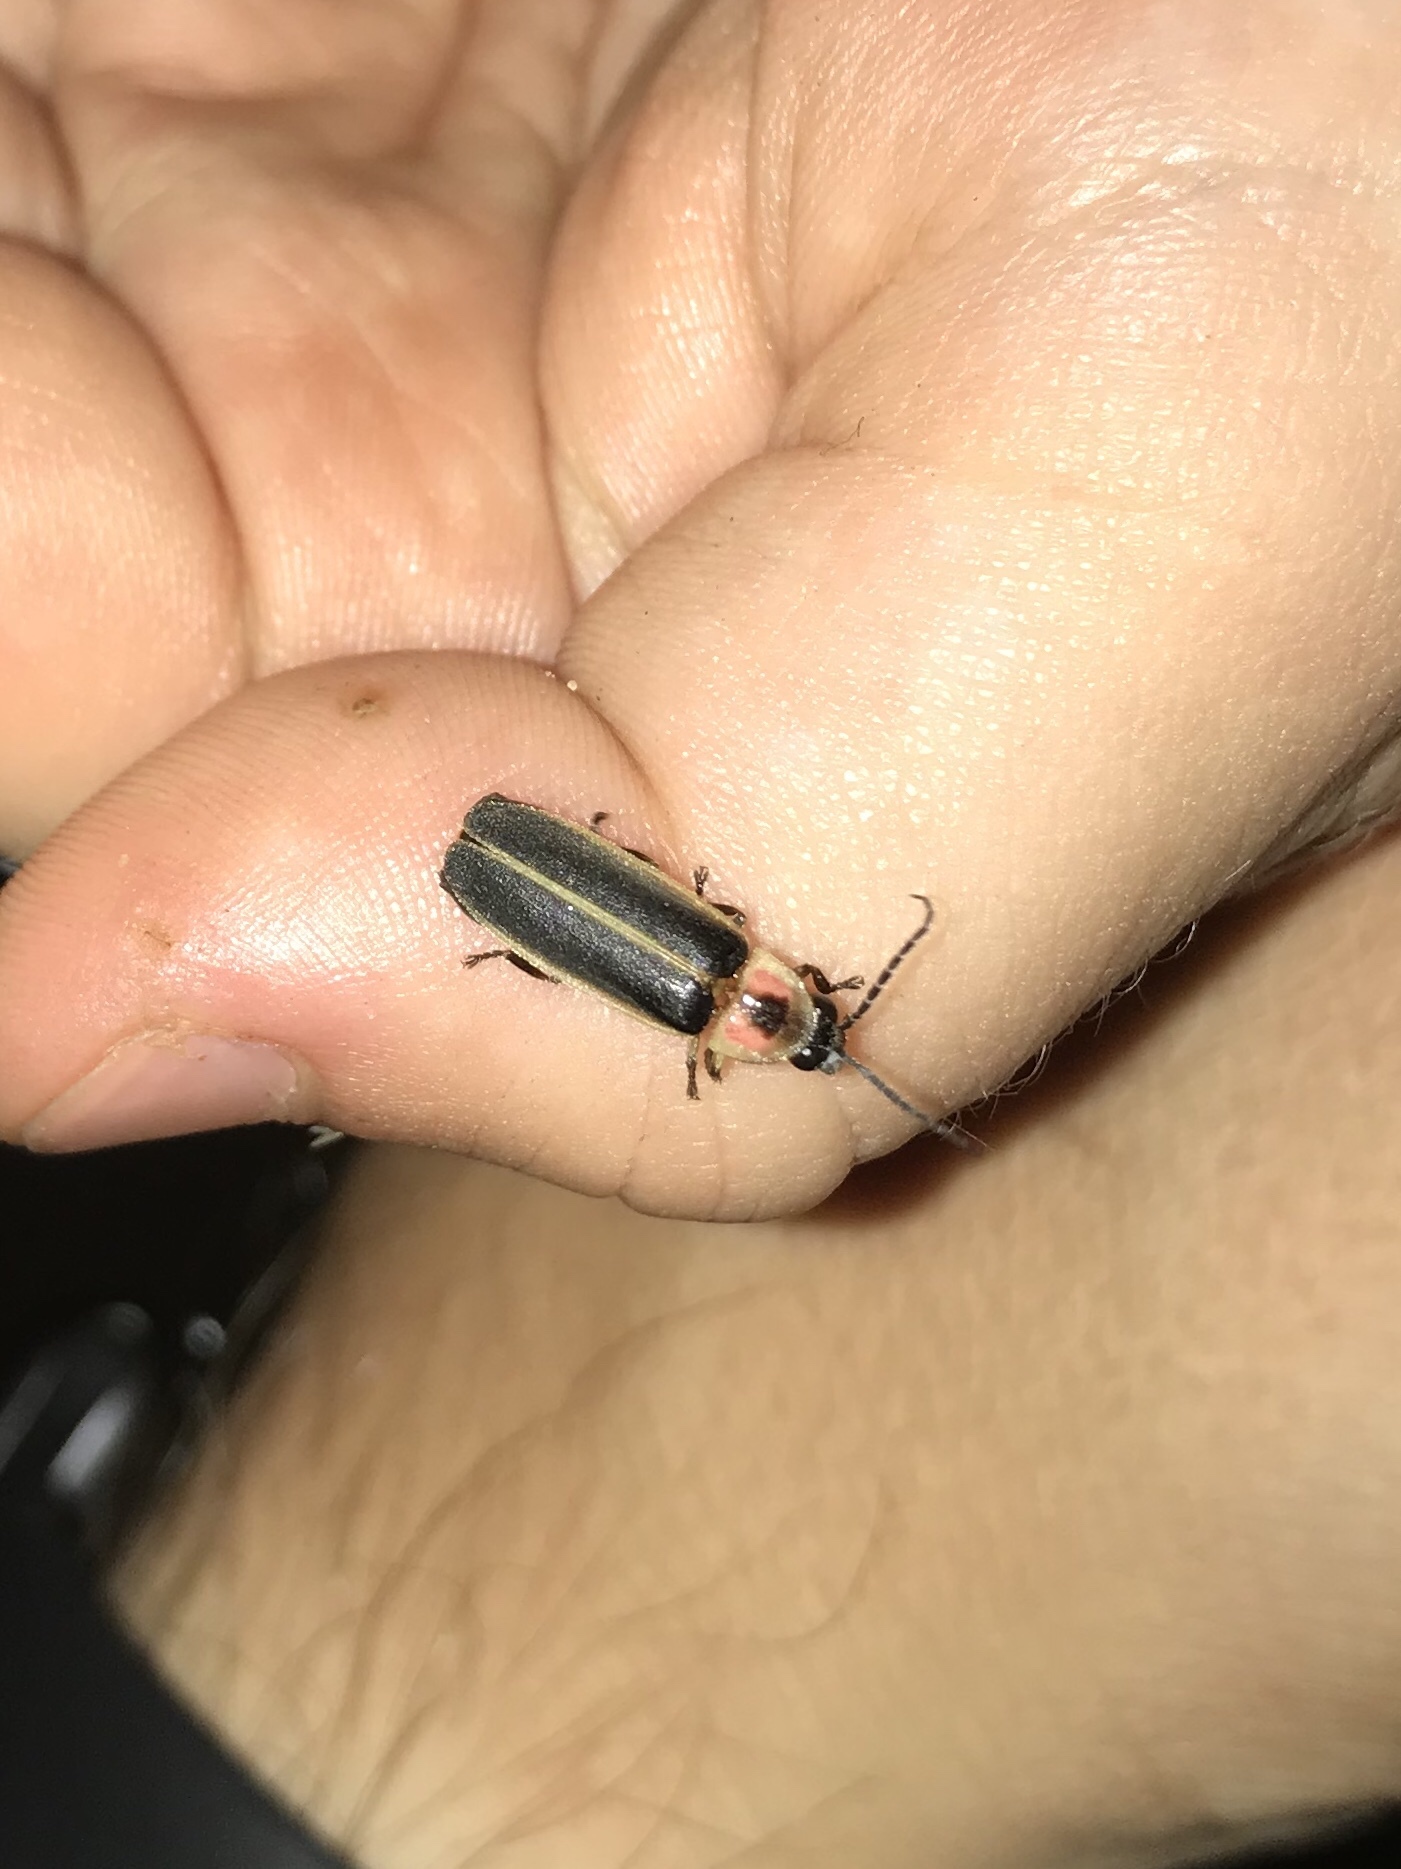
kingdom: Animalia
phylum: Arthropoda
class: Insecta
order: Coleoptera
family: Lampyridae
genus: Photinus
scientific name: Photinus pyralis
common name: Big dipper firefly
